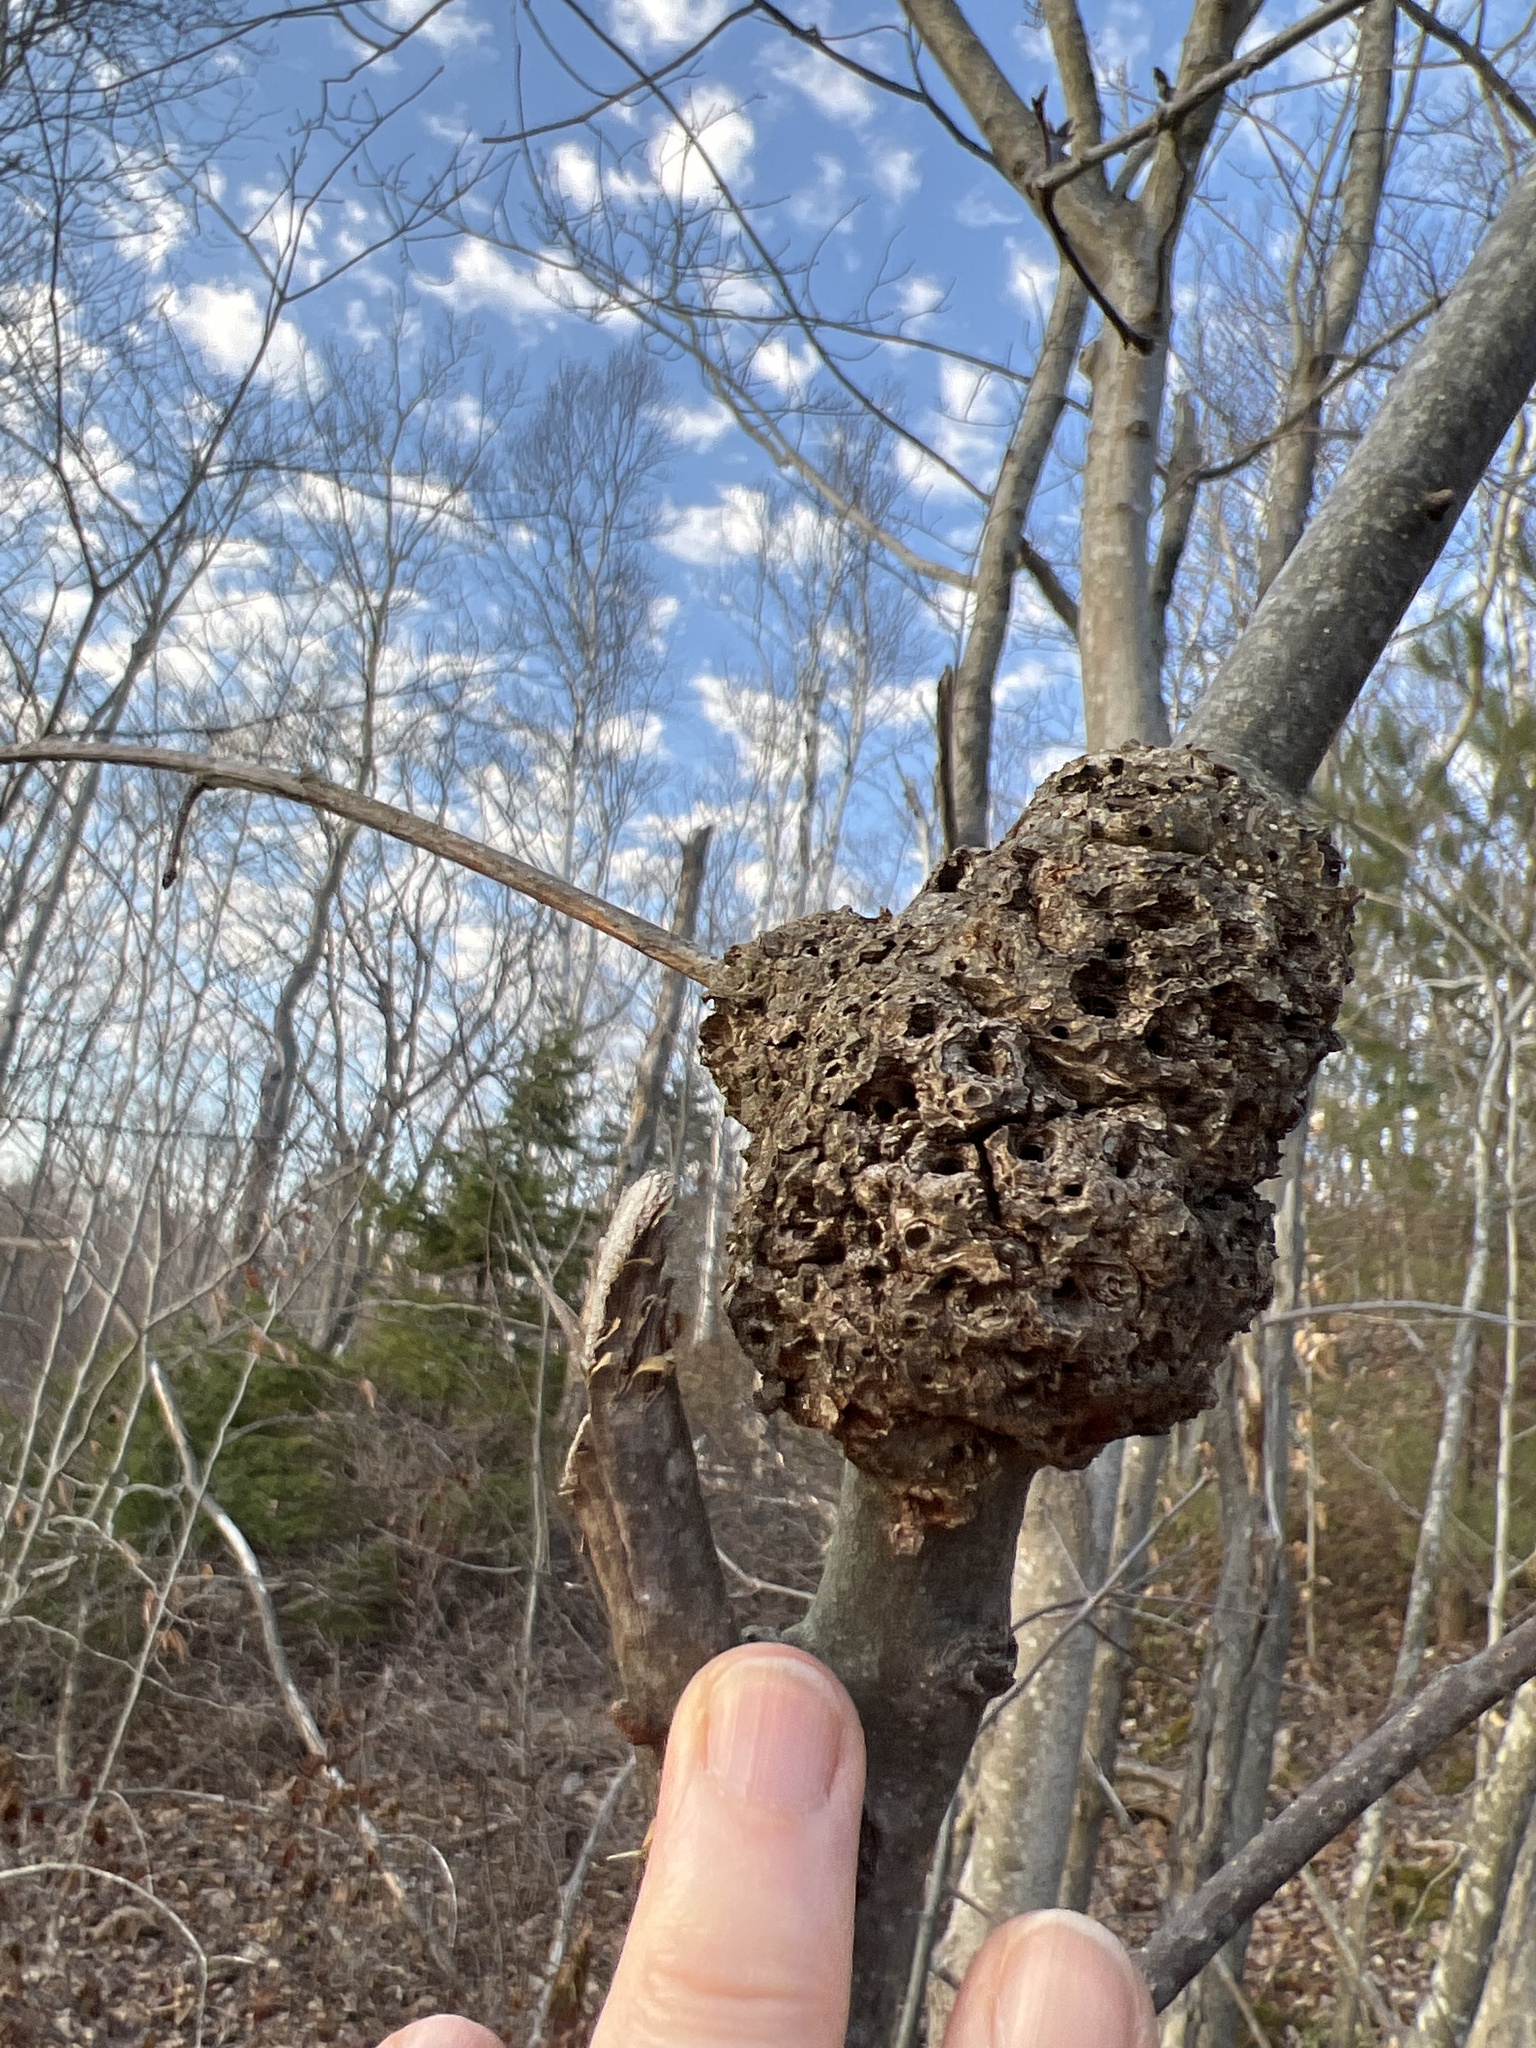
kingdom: Bacteria
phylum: Proteobacteria
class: Alphaproteobacteria
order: Rhizobiales
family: Rhizobiaceae
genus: Rhizobium
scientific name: Rhizobium Agrobacterium radiobacter
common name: Bacterial crown gall
